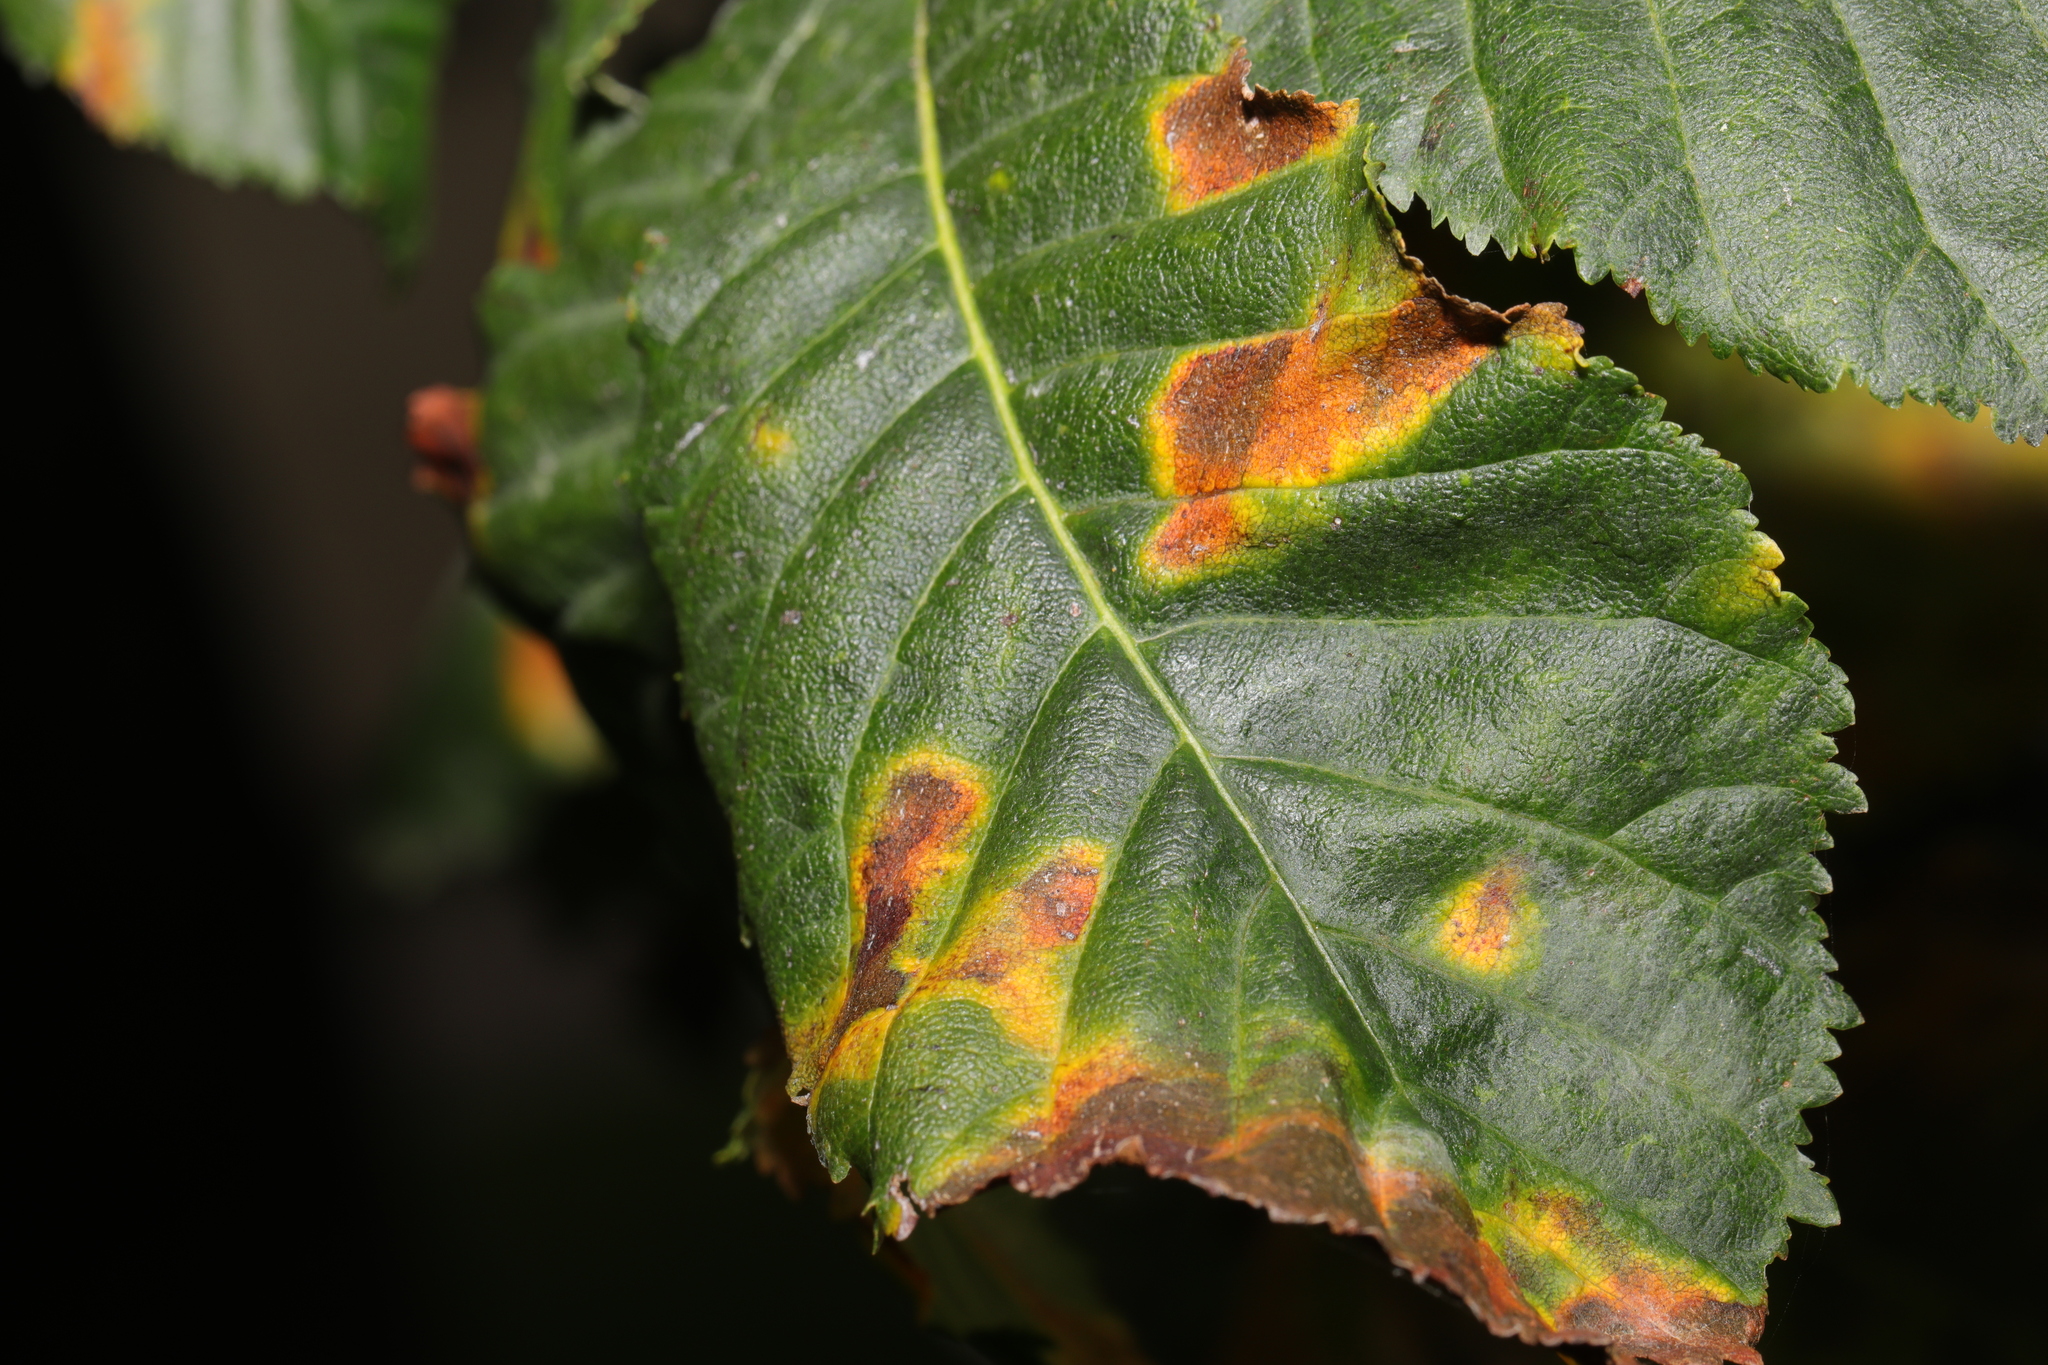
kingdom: Fungi
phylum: Ascomycota
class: Dothideomycetes
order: Botryosphaeriales
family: Phyllostictaceae
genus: Phyllosticta
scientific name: Phyllosticta paviae
